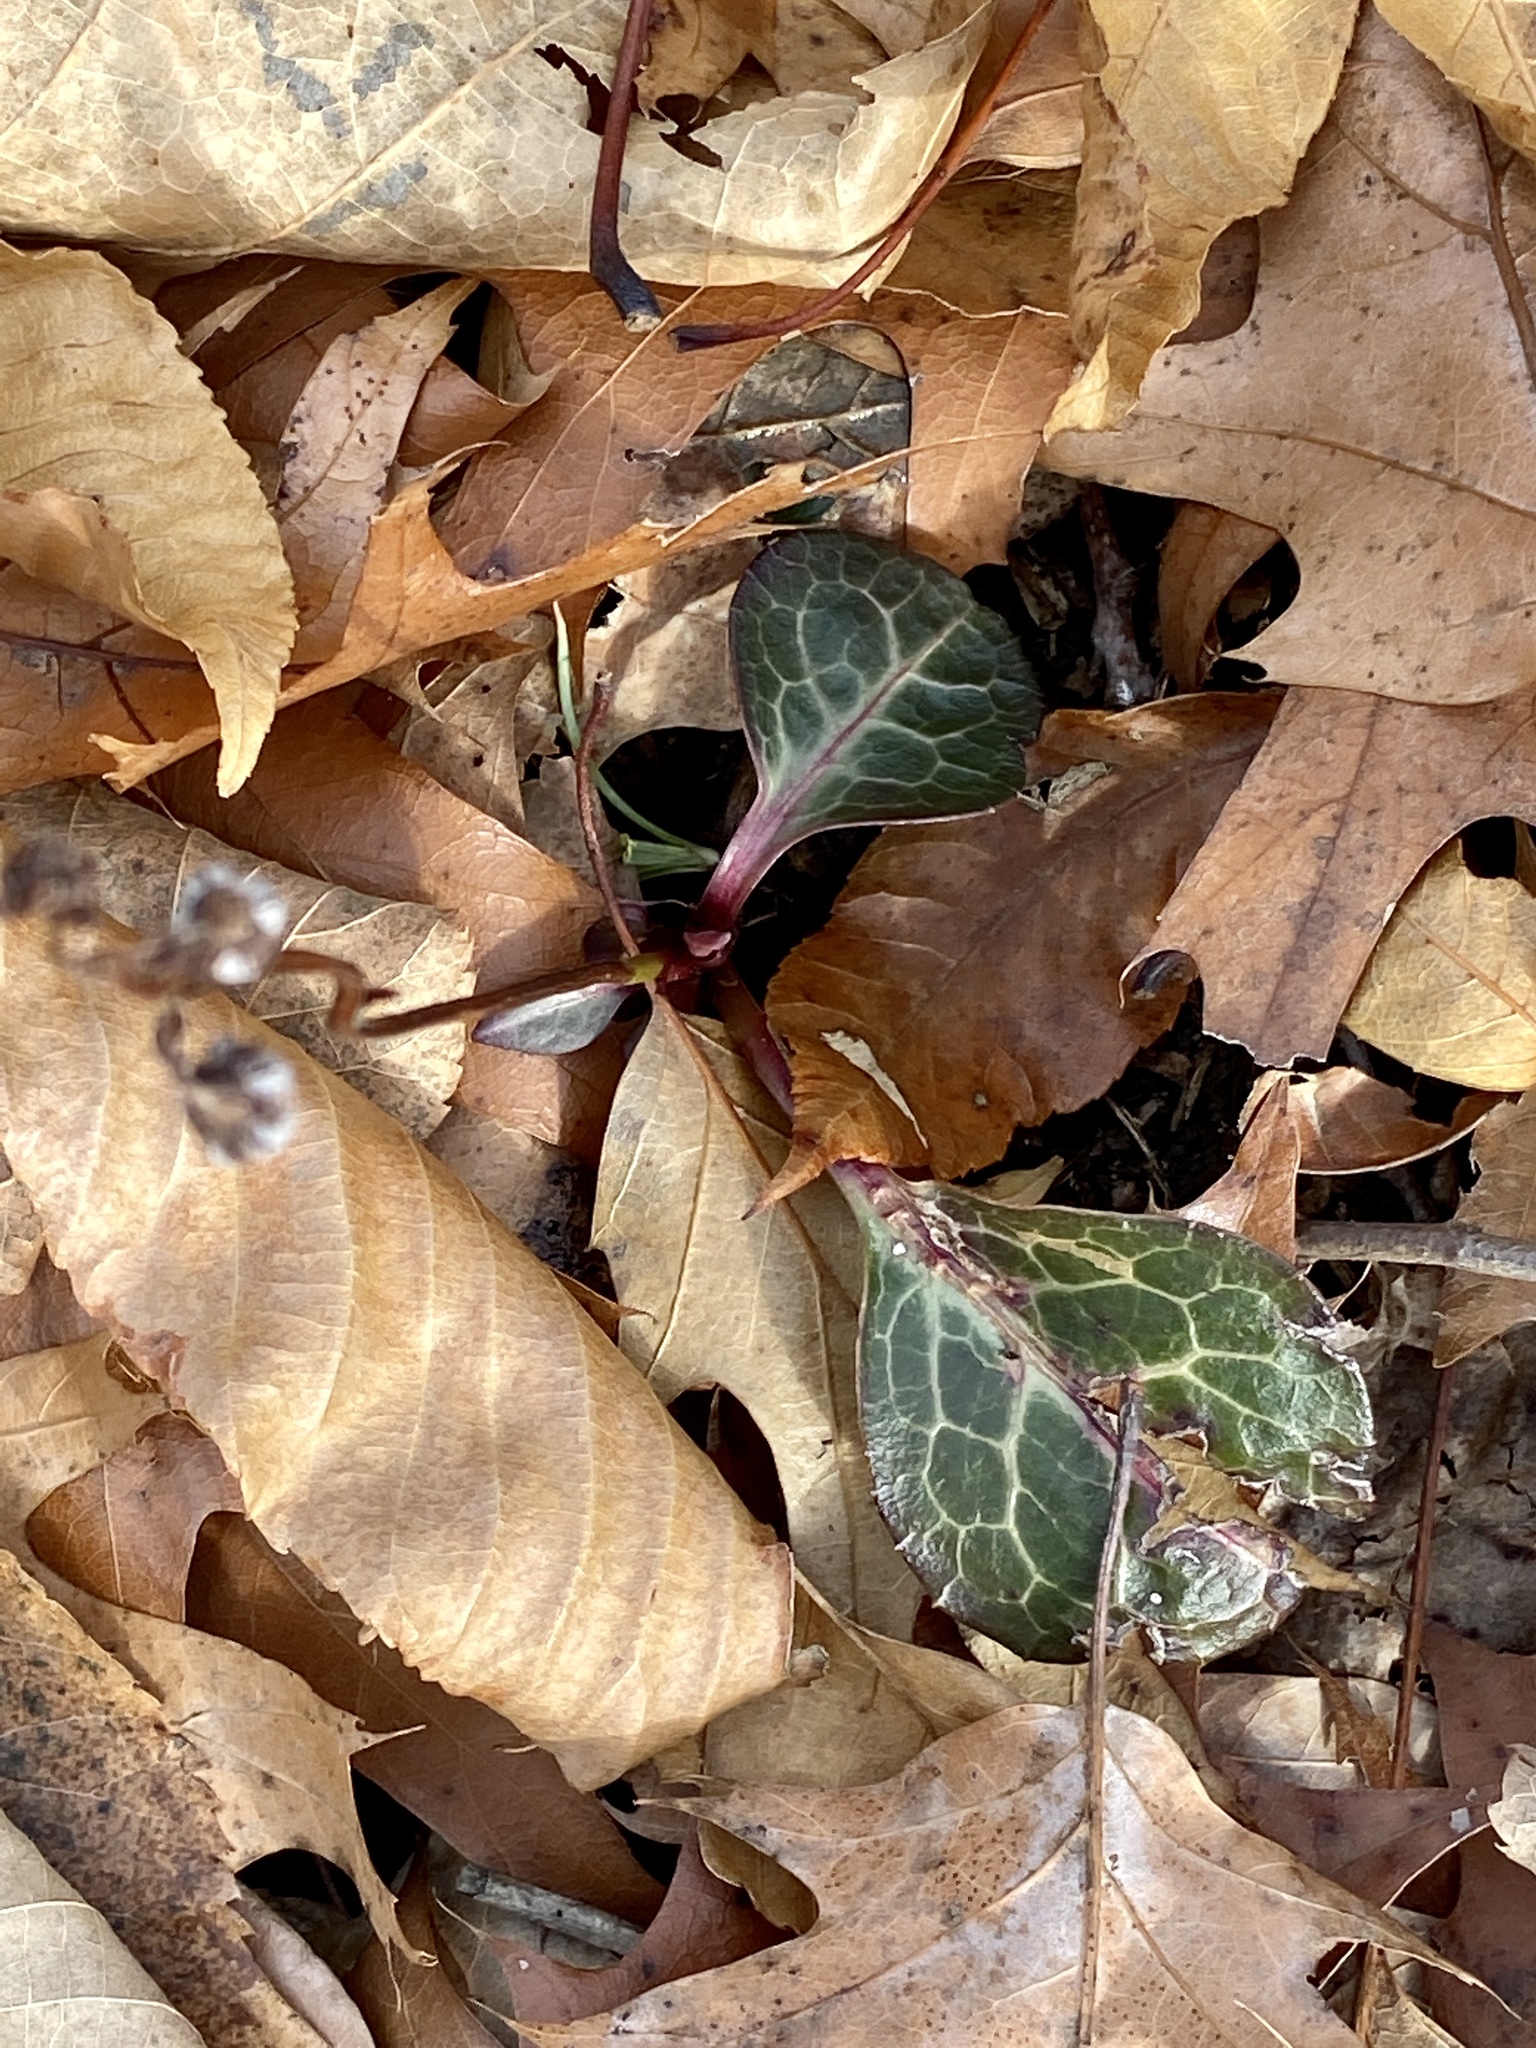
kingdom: Plantae
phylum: Tracheophyta
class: Magnoliopsida
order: Ericales
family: Ericaceae
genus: Pyrola
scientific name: Pyrola americana
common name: American wintergreen
